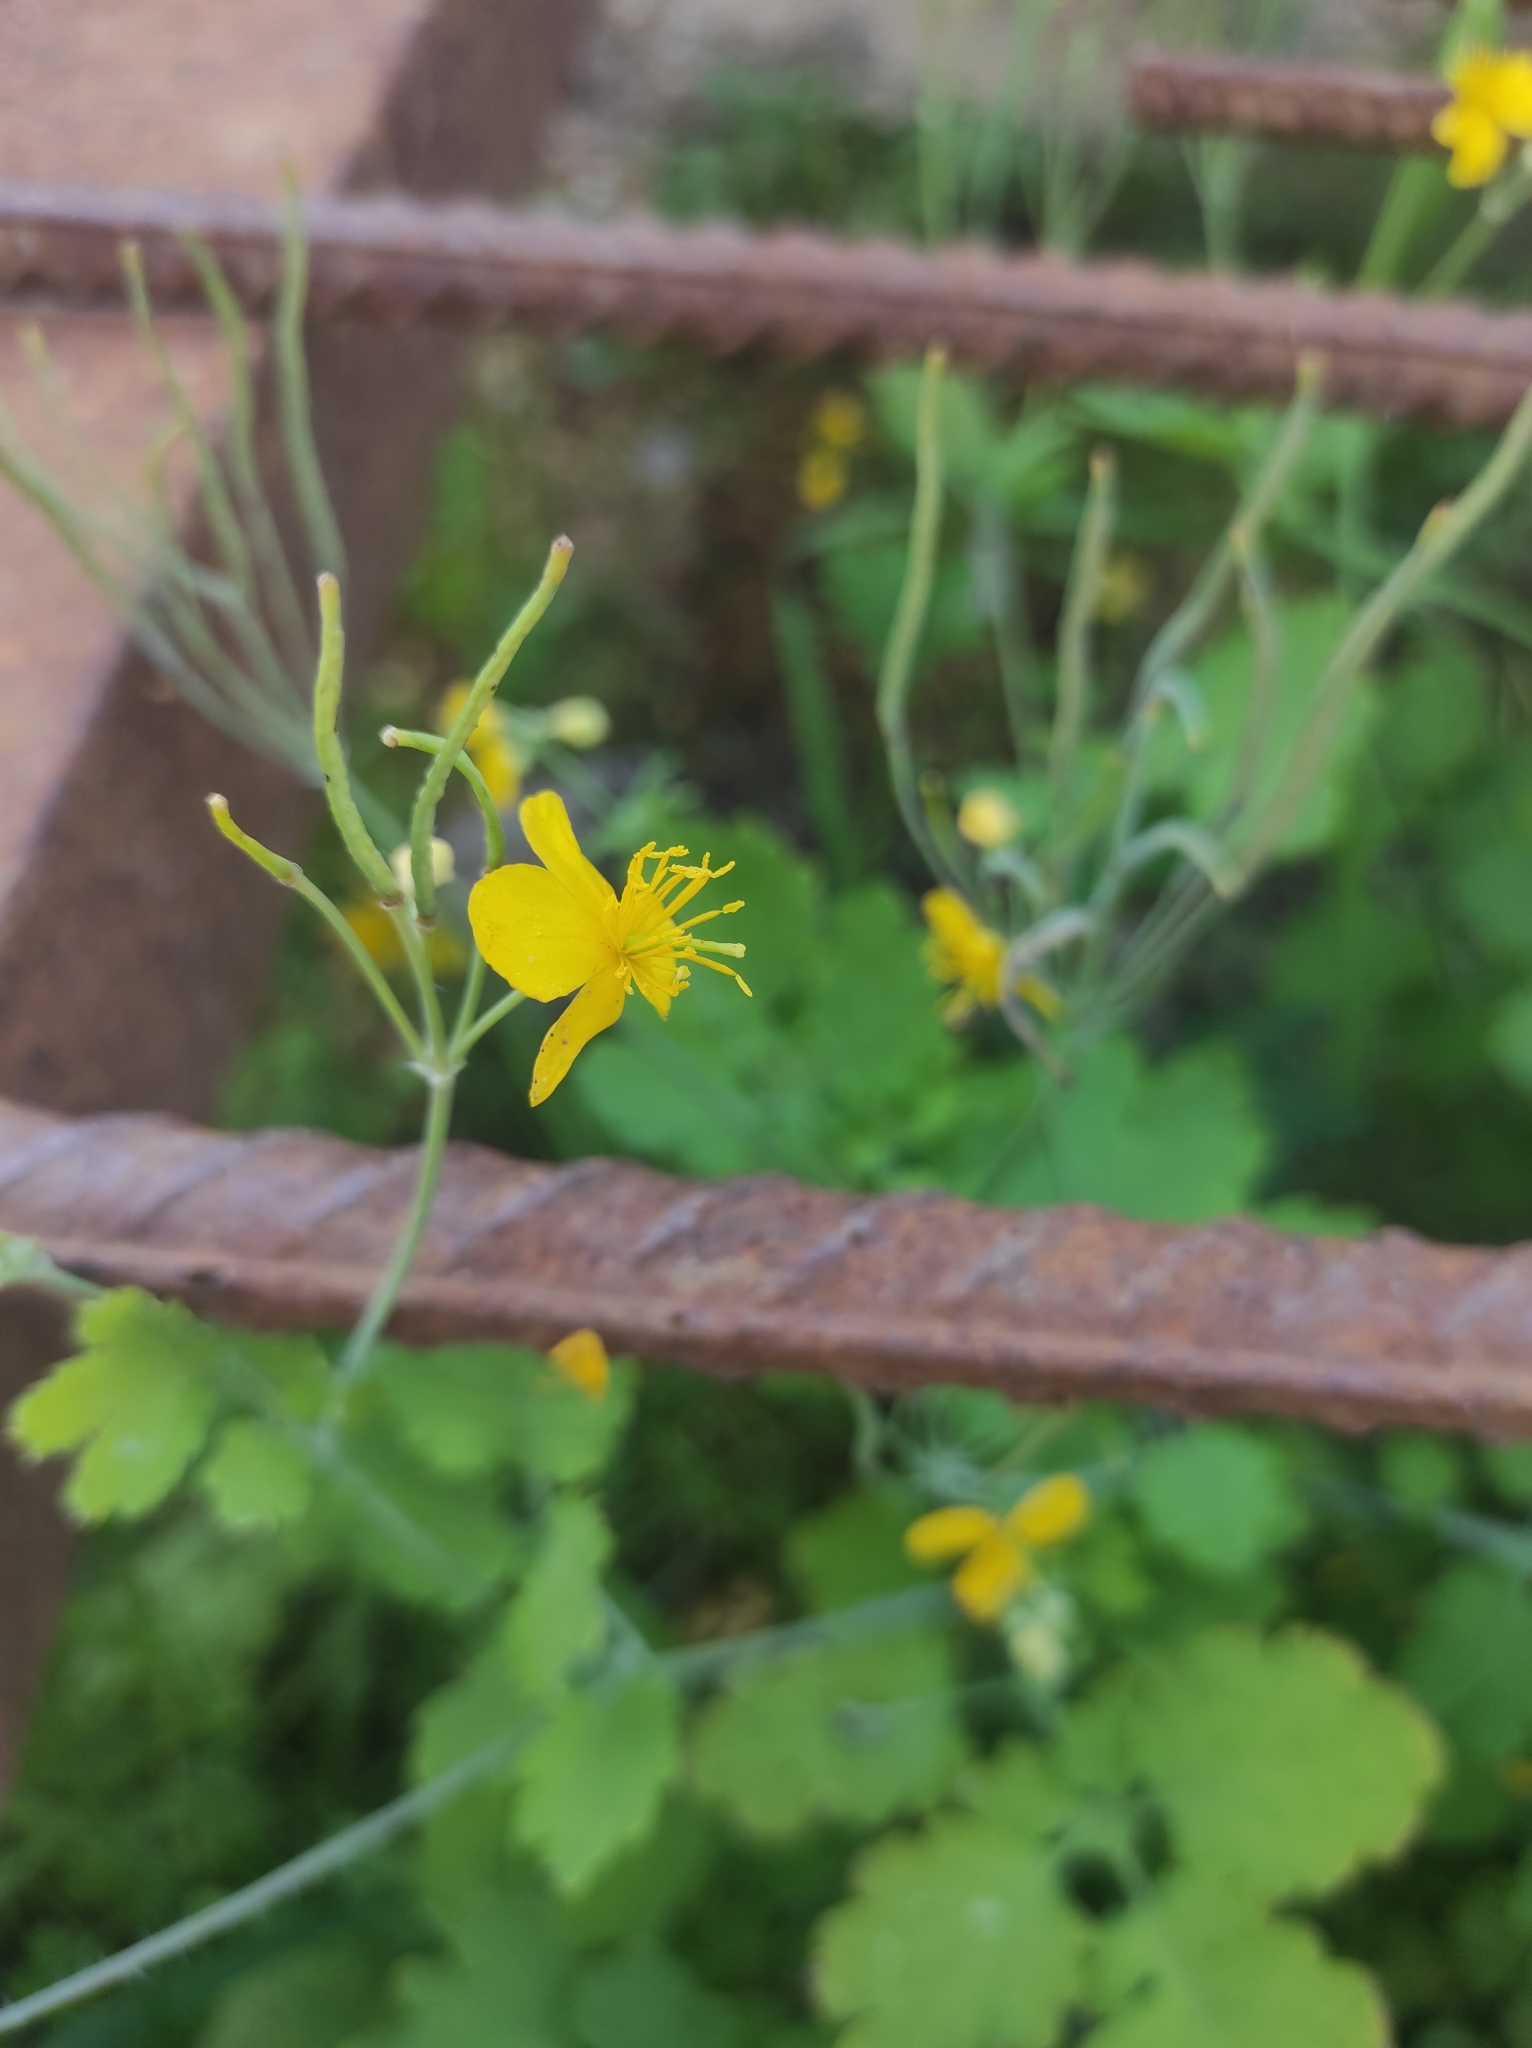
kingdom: Plantae
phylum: Tracheophyta
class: Magnoliopsida
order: Ranunculales
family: Papaveraceae
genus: Chelidonium
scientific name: Chelidonium majus
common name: Greater celandine
